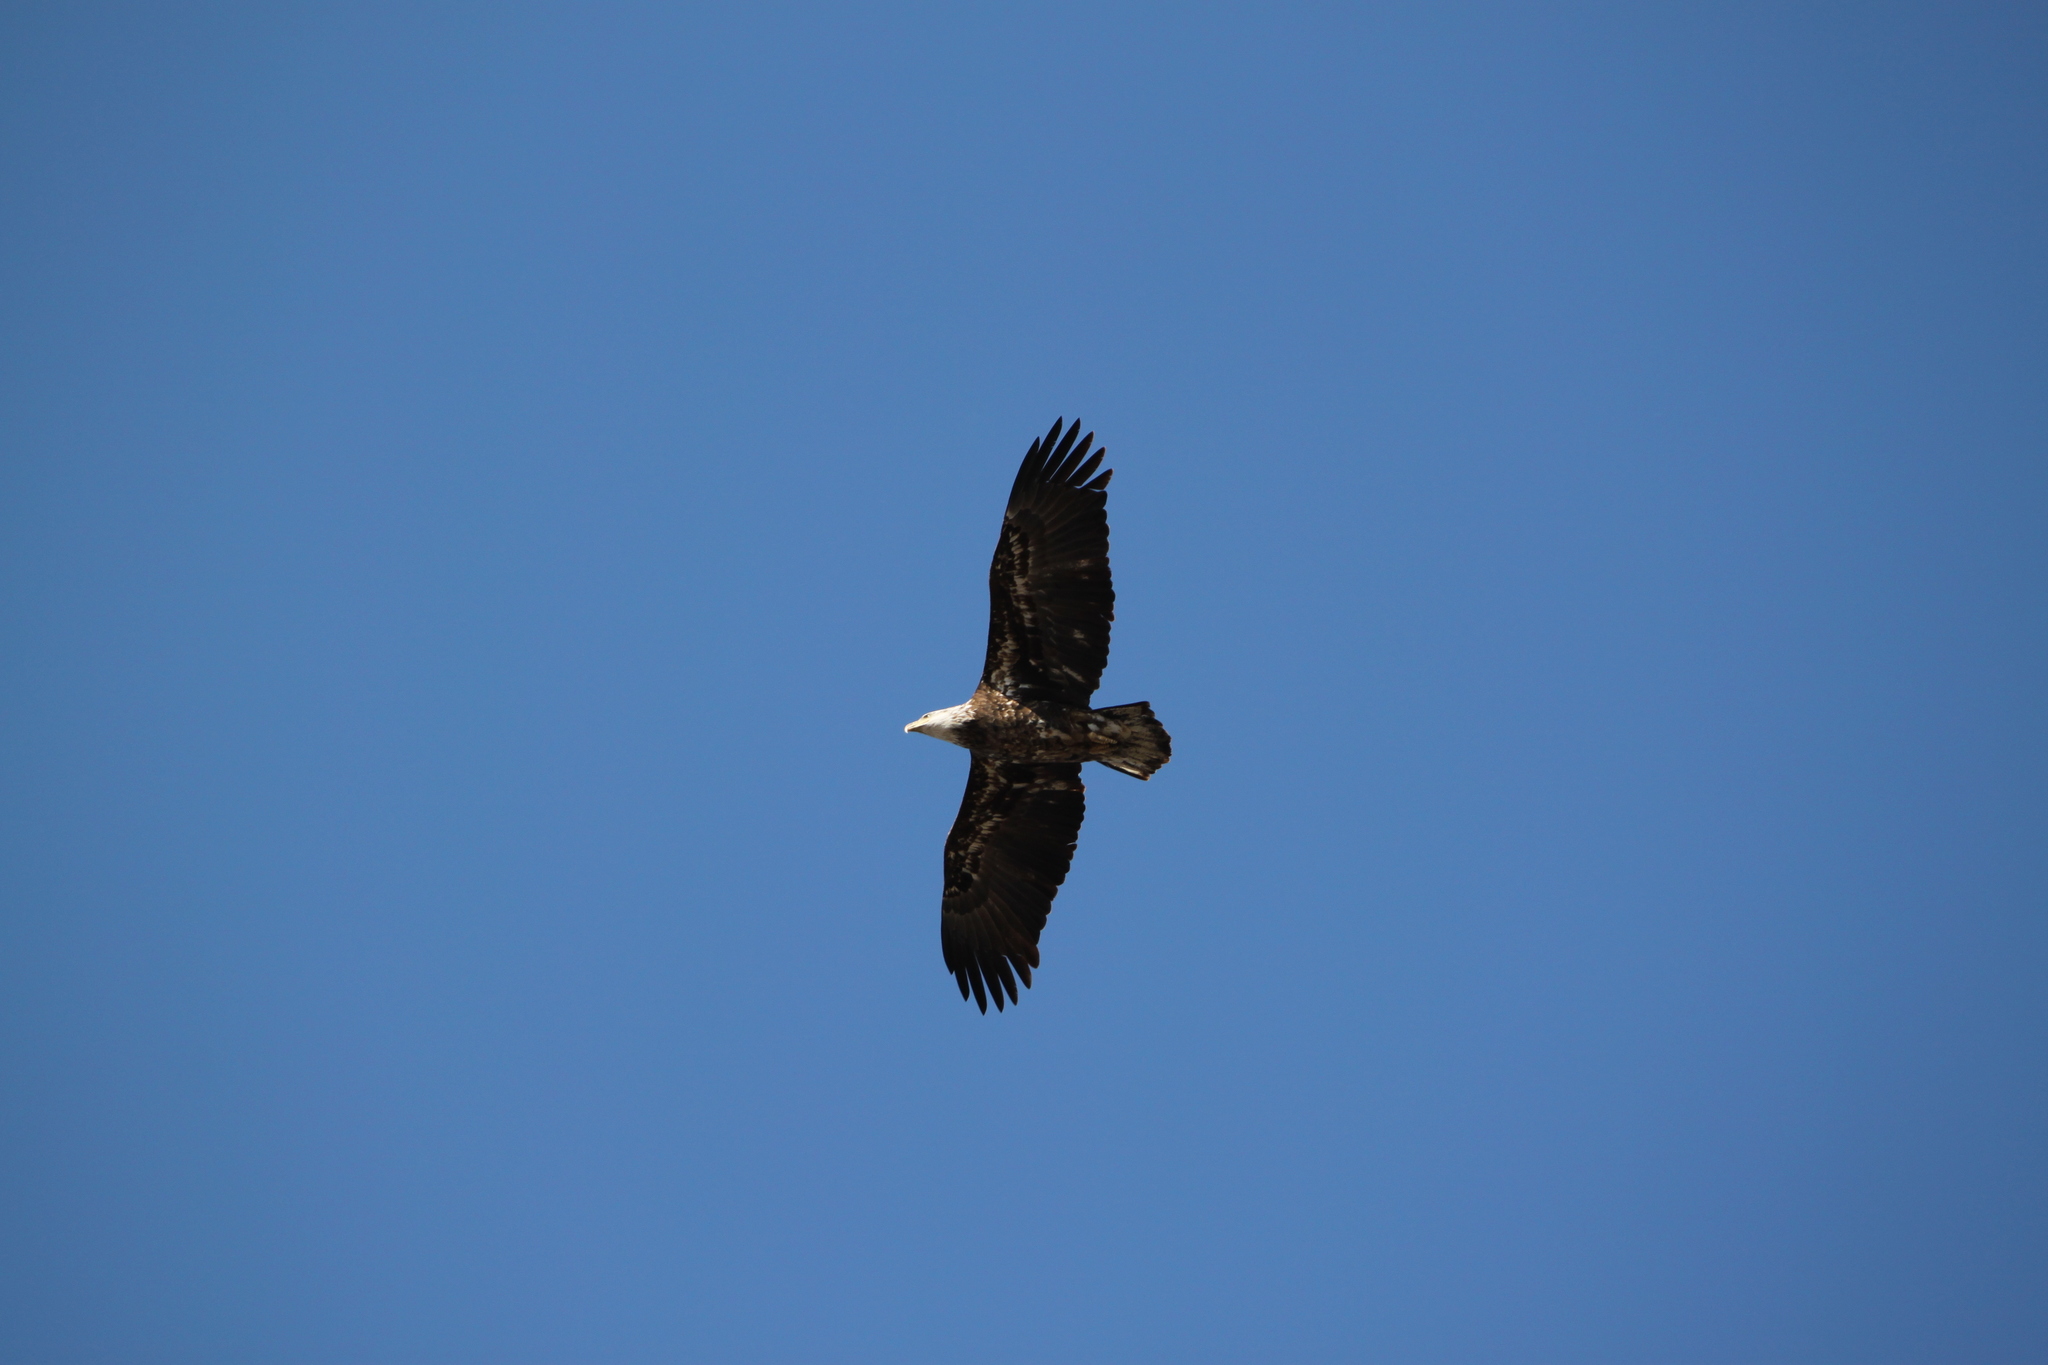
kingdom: Animalia
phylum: Chordata
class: Aves
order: Accipitriformes
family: Accipitridae
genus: Haliaeetus
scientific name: Haliaeetus leucocephalus
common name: Bald eagle
